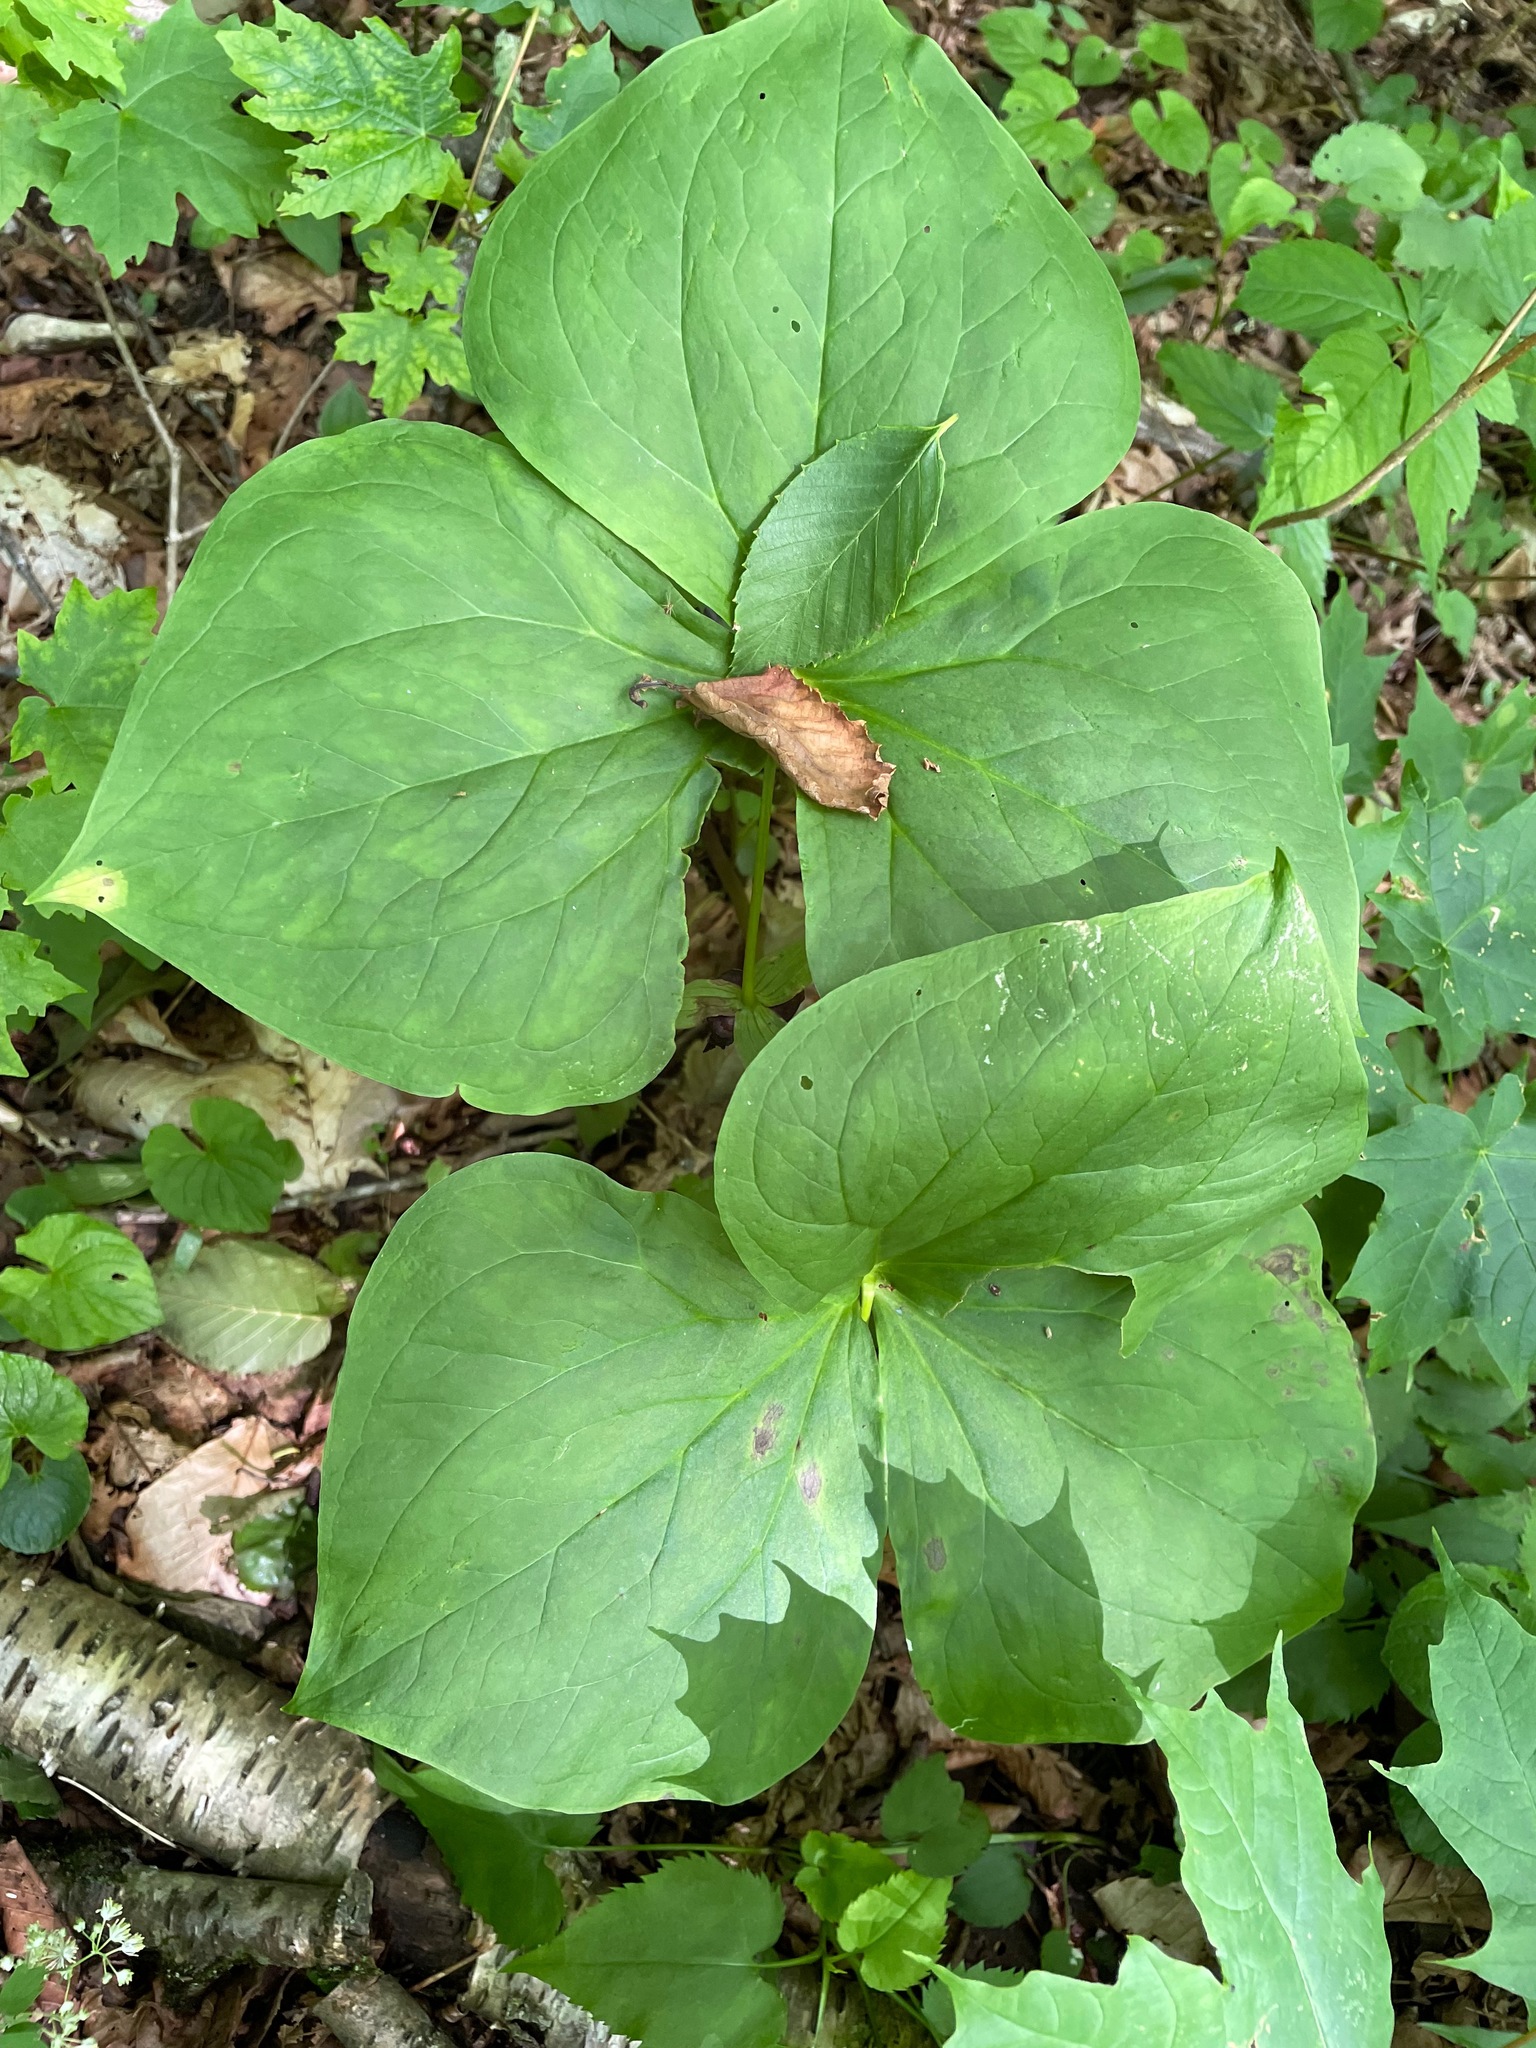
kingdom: Plantae
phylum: Tracheophyta
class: Liliopsida
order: Liliales
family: Melanthiaceae
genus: Trillium
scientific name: Trillium erectum
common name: Purple trillium
